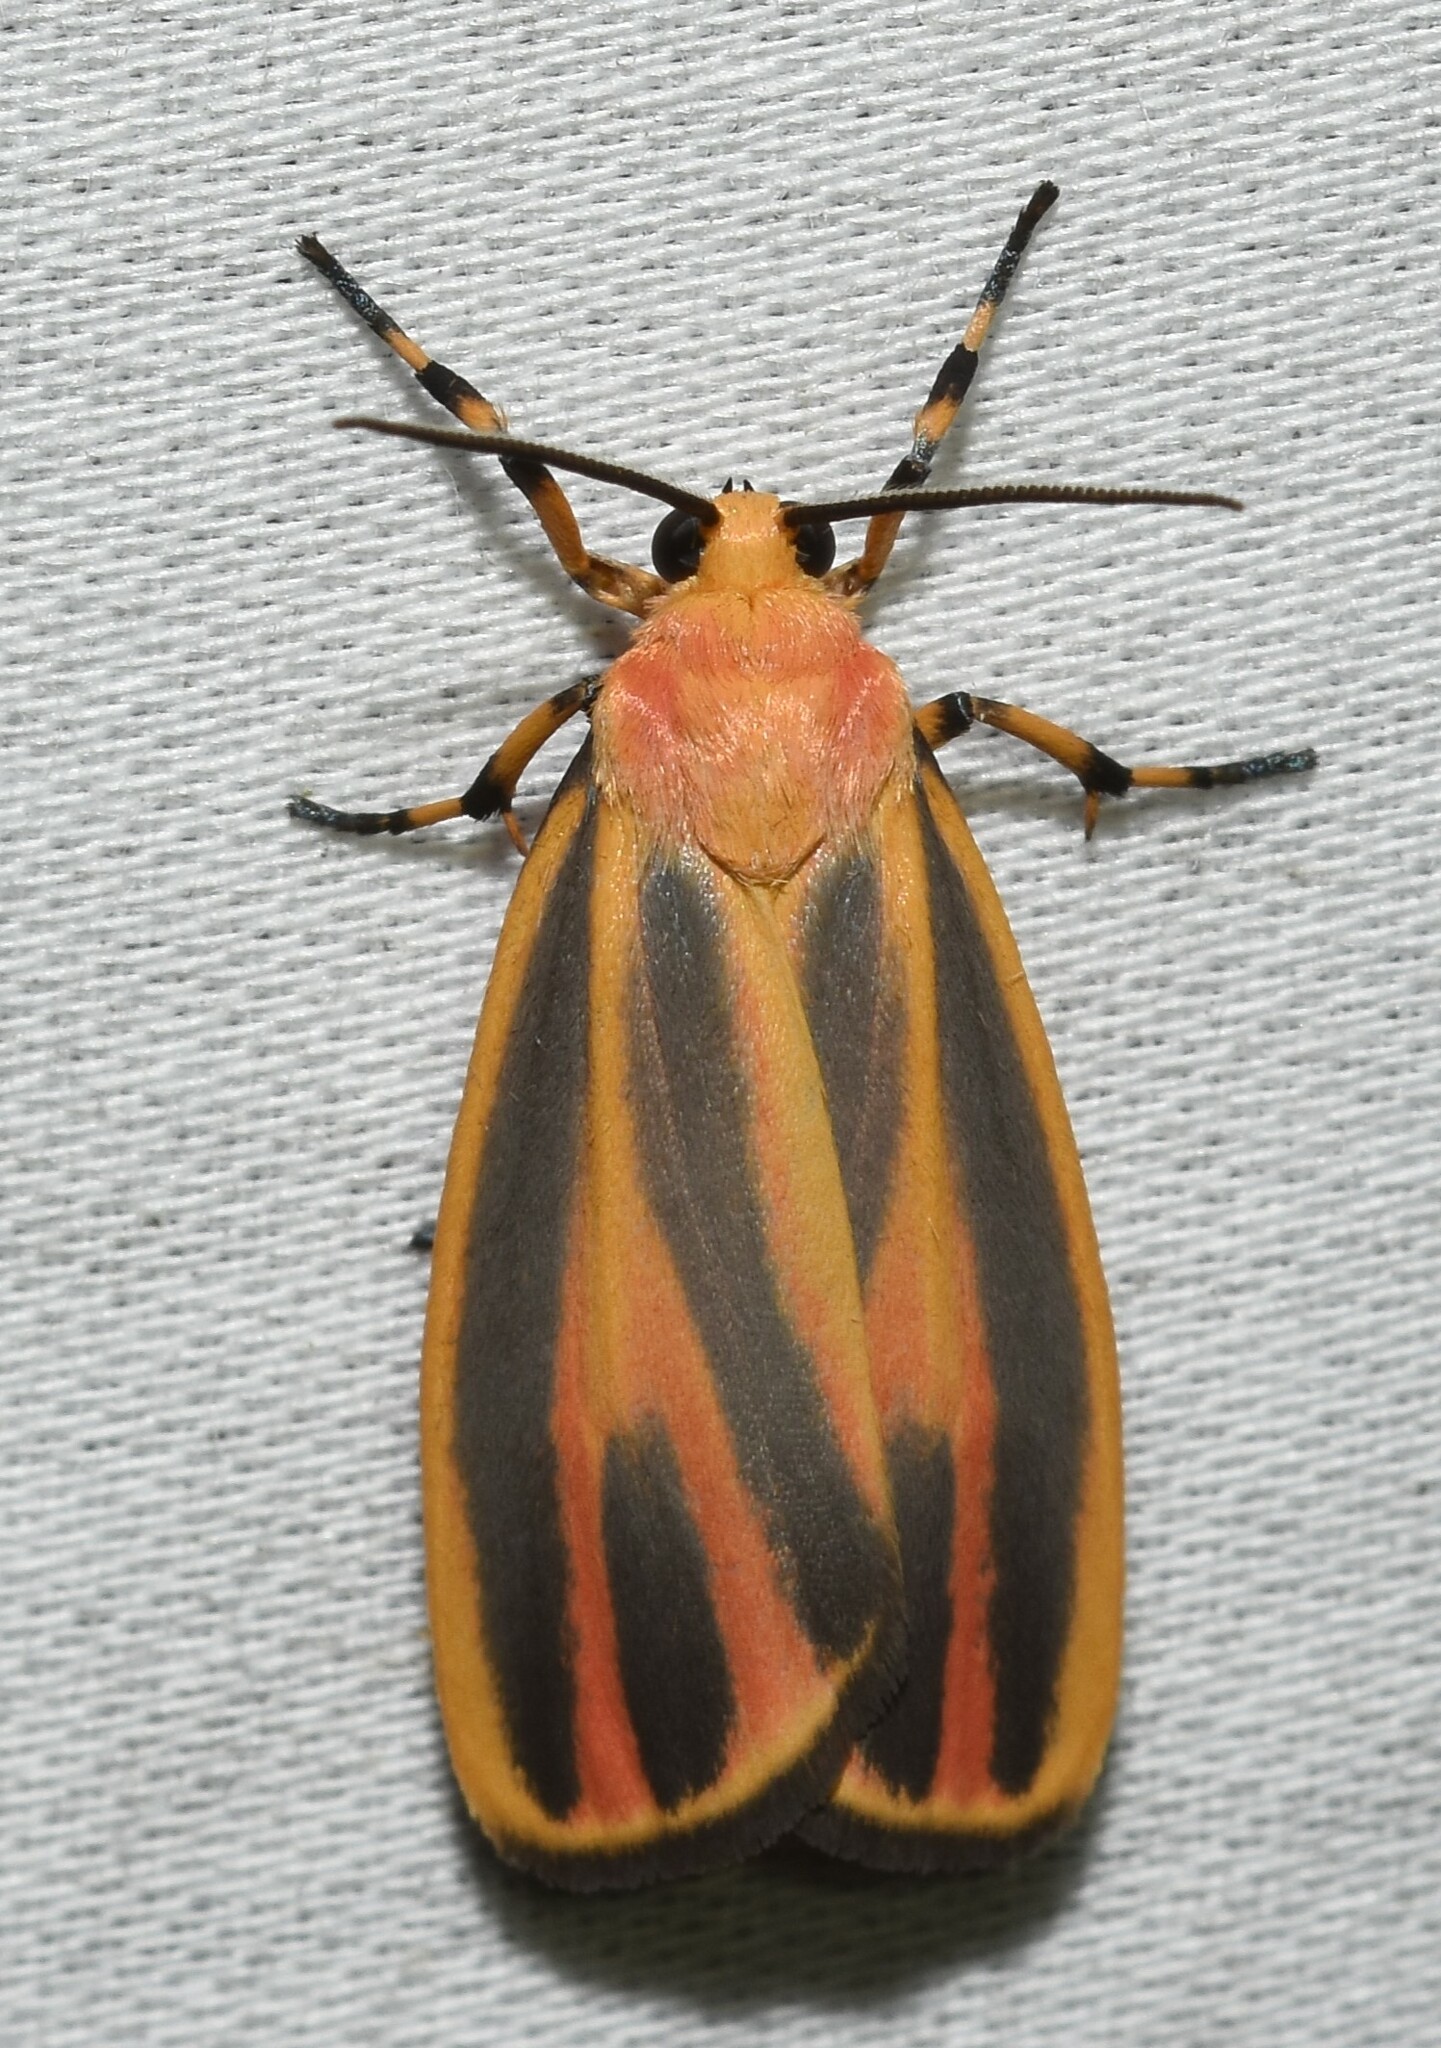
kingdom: Animalia
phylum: Arthropoda
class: Insecta
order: Lepidoptera
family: Erebidae
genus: Hypoprepia
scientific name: Hypoprepia fucosa
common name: Painted lichen moth
